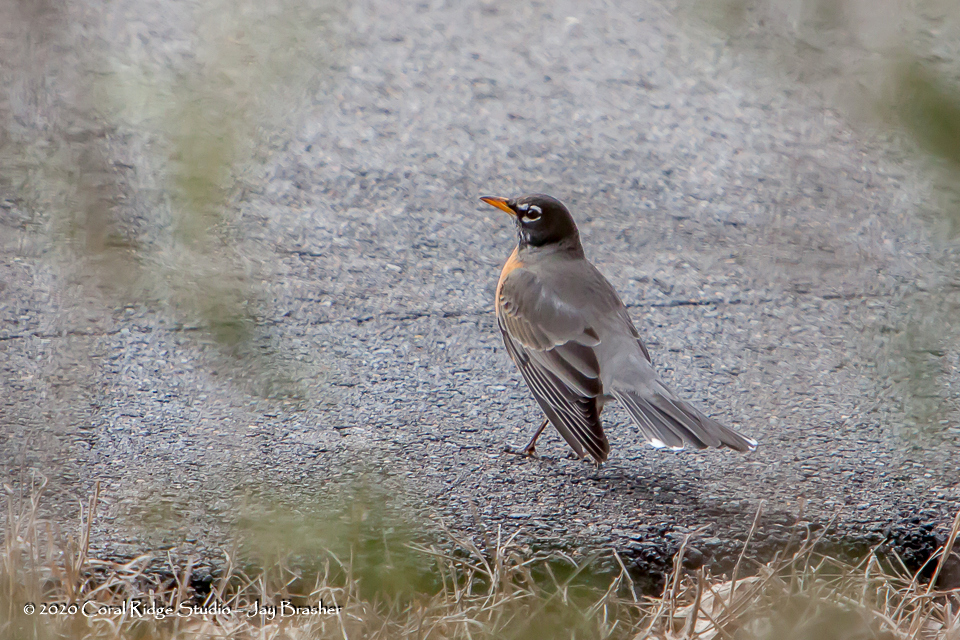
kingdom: Animalia
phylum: Chordata
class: Aves
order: Passeriformes
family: Turdidae
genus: Turdus
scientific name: Turdus migratorius
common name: American robin
